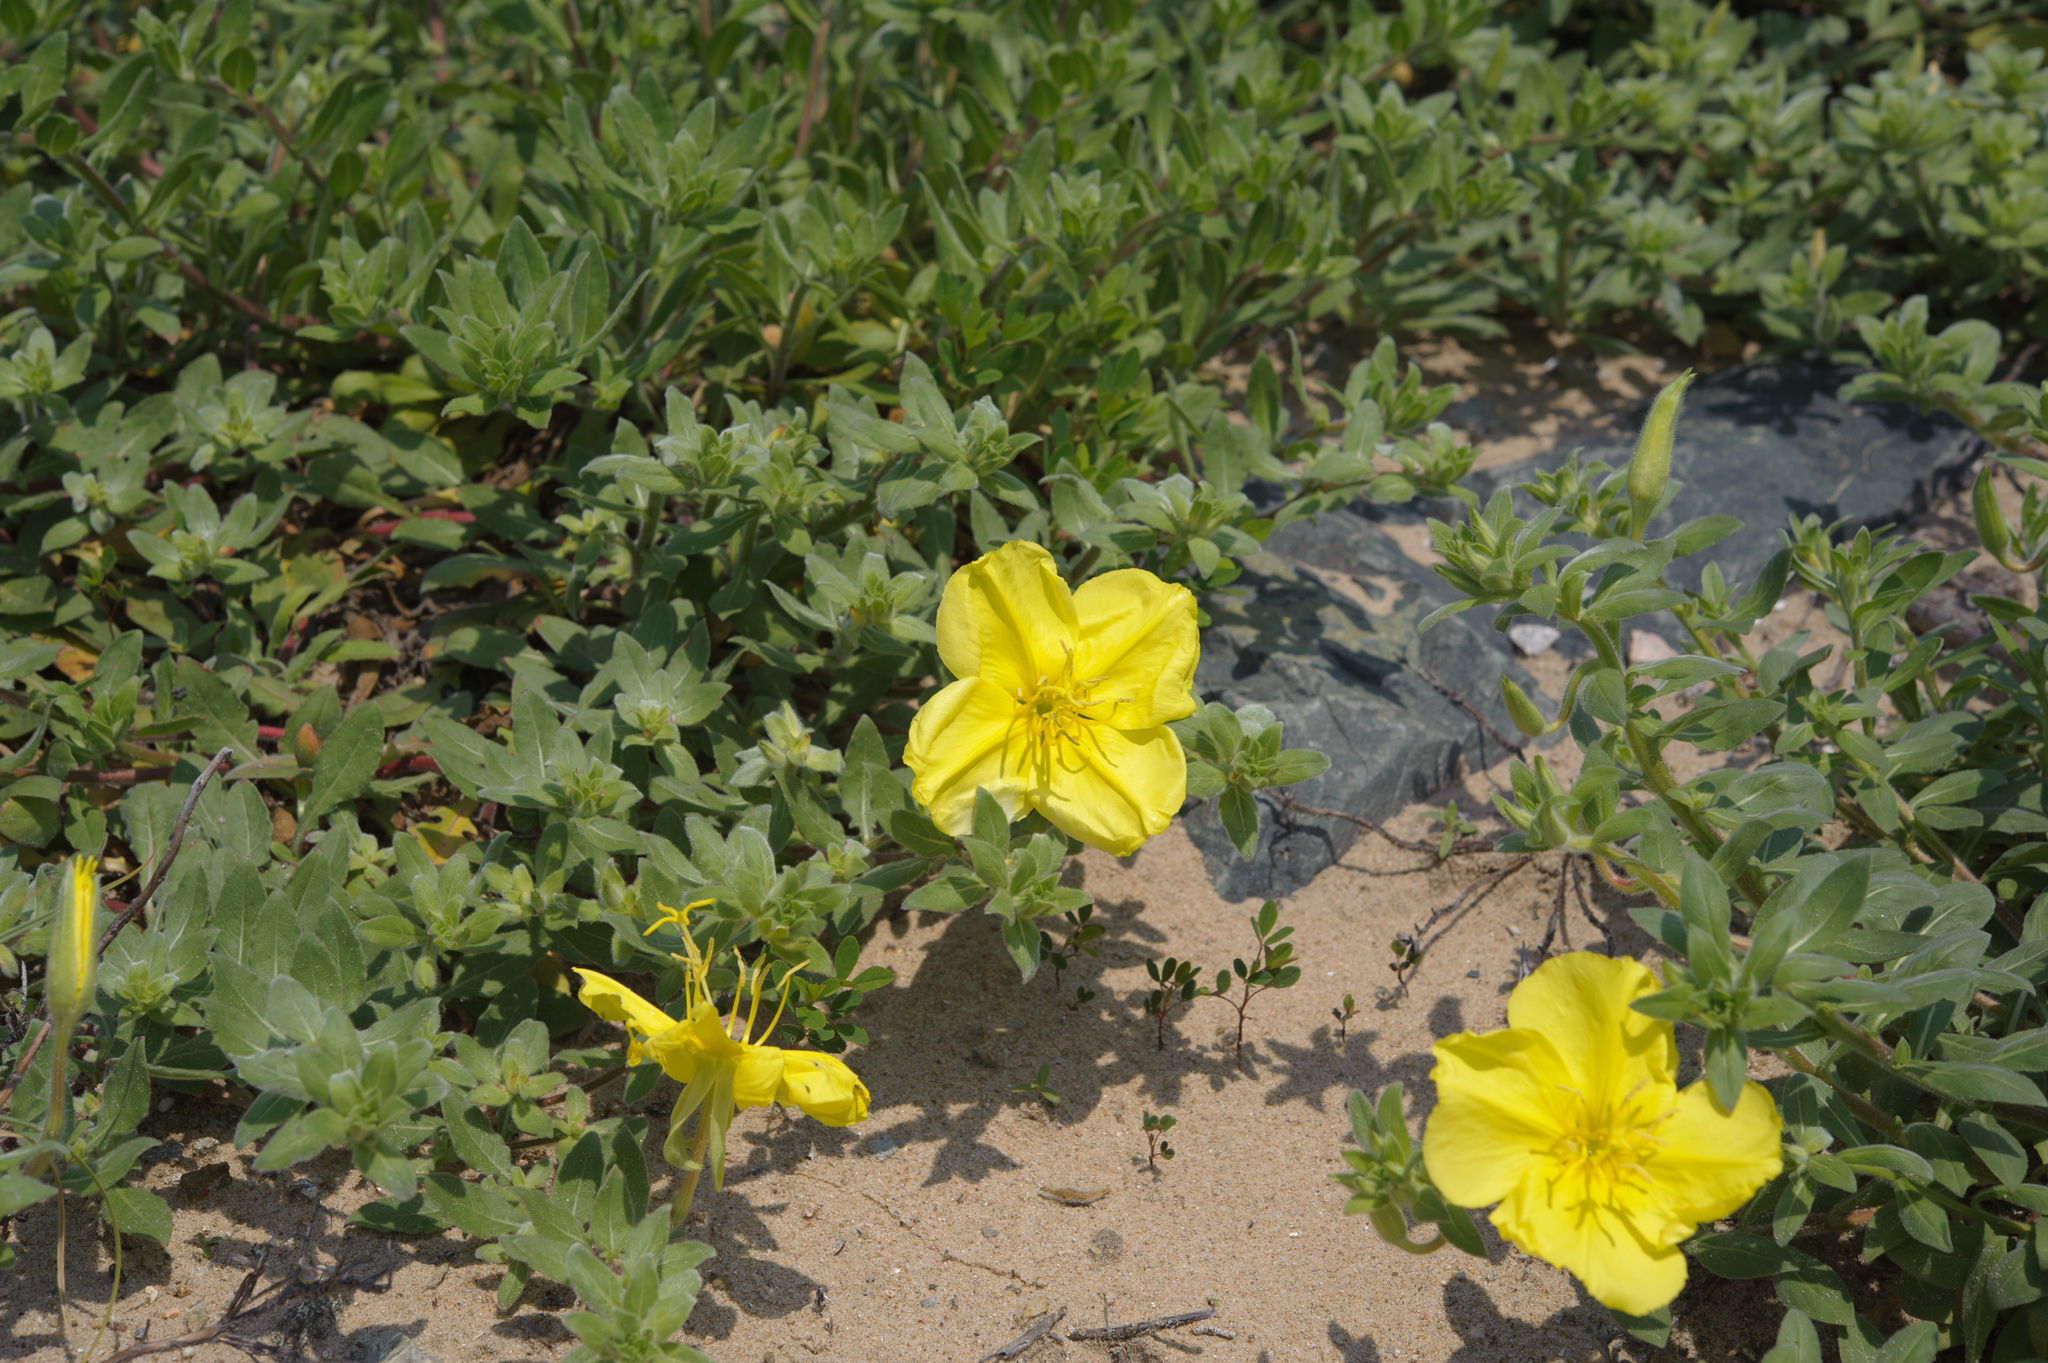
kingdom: Plantae
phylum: Tracheophyta
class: Magnoliopsida
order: Myrtales
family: Onagraceae
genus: Oenothera
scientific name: Oenothera drummondii
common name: Beach evening-primrose
